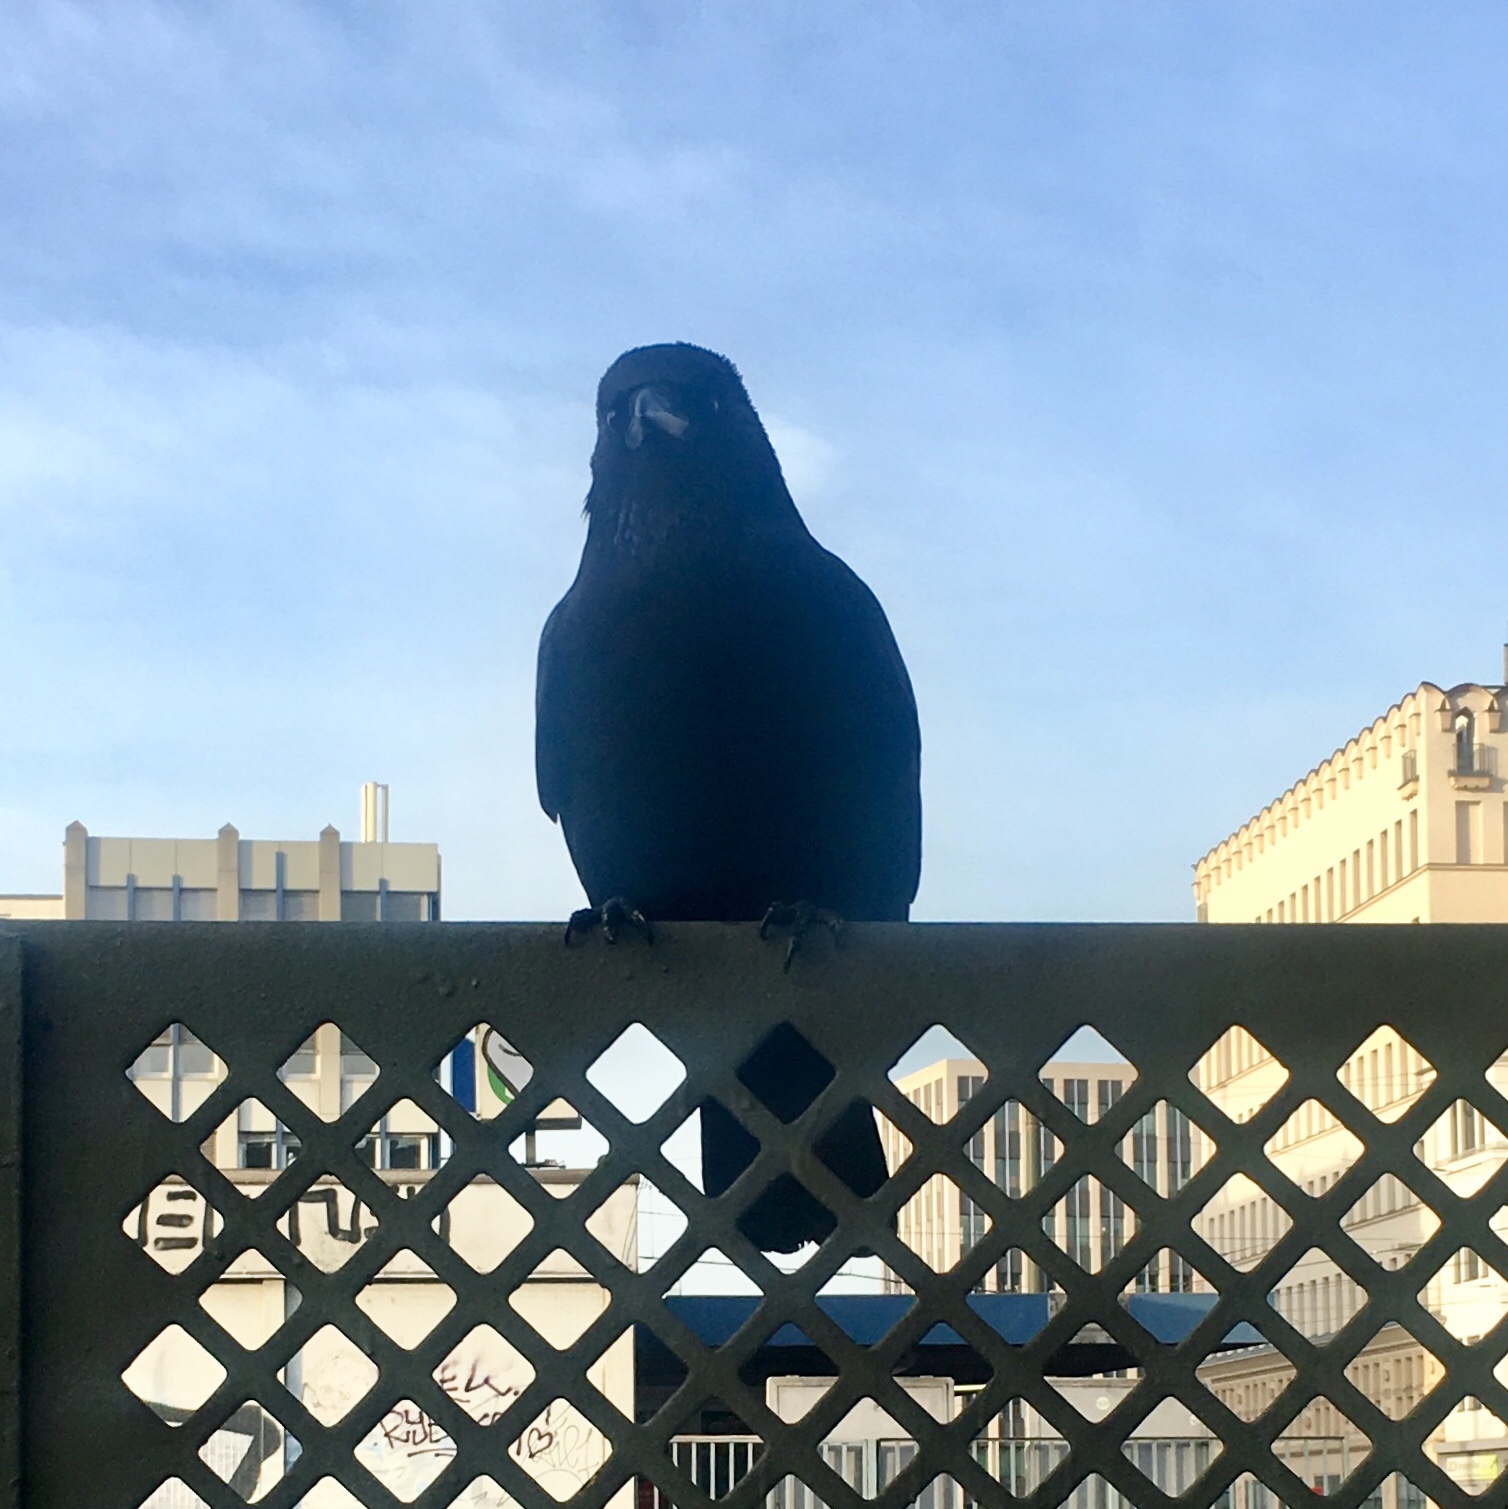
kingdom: Animalia
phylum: Chordata
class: Aves
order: Passeriformes
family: Corvidae
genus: Corvus
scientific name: Corvus corone
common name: Carrion crow
